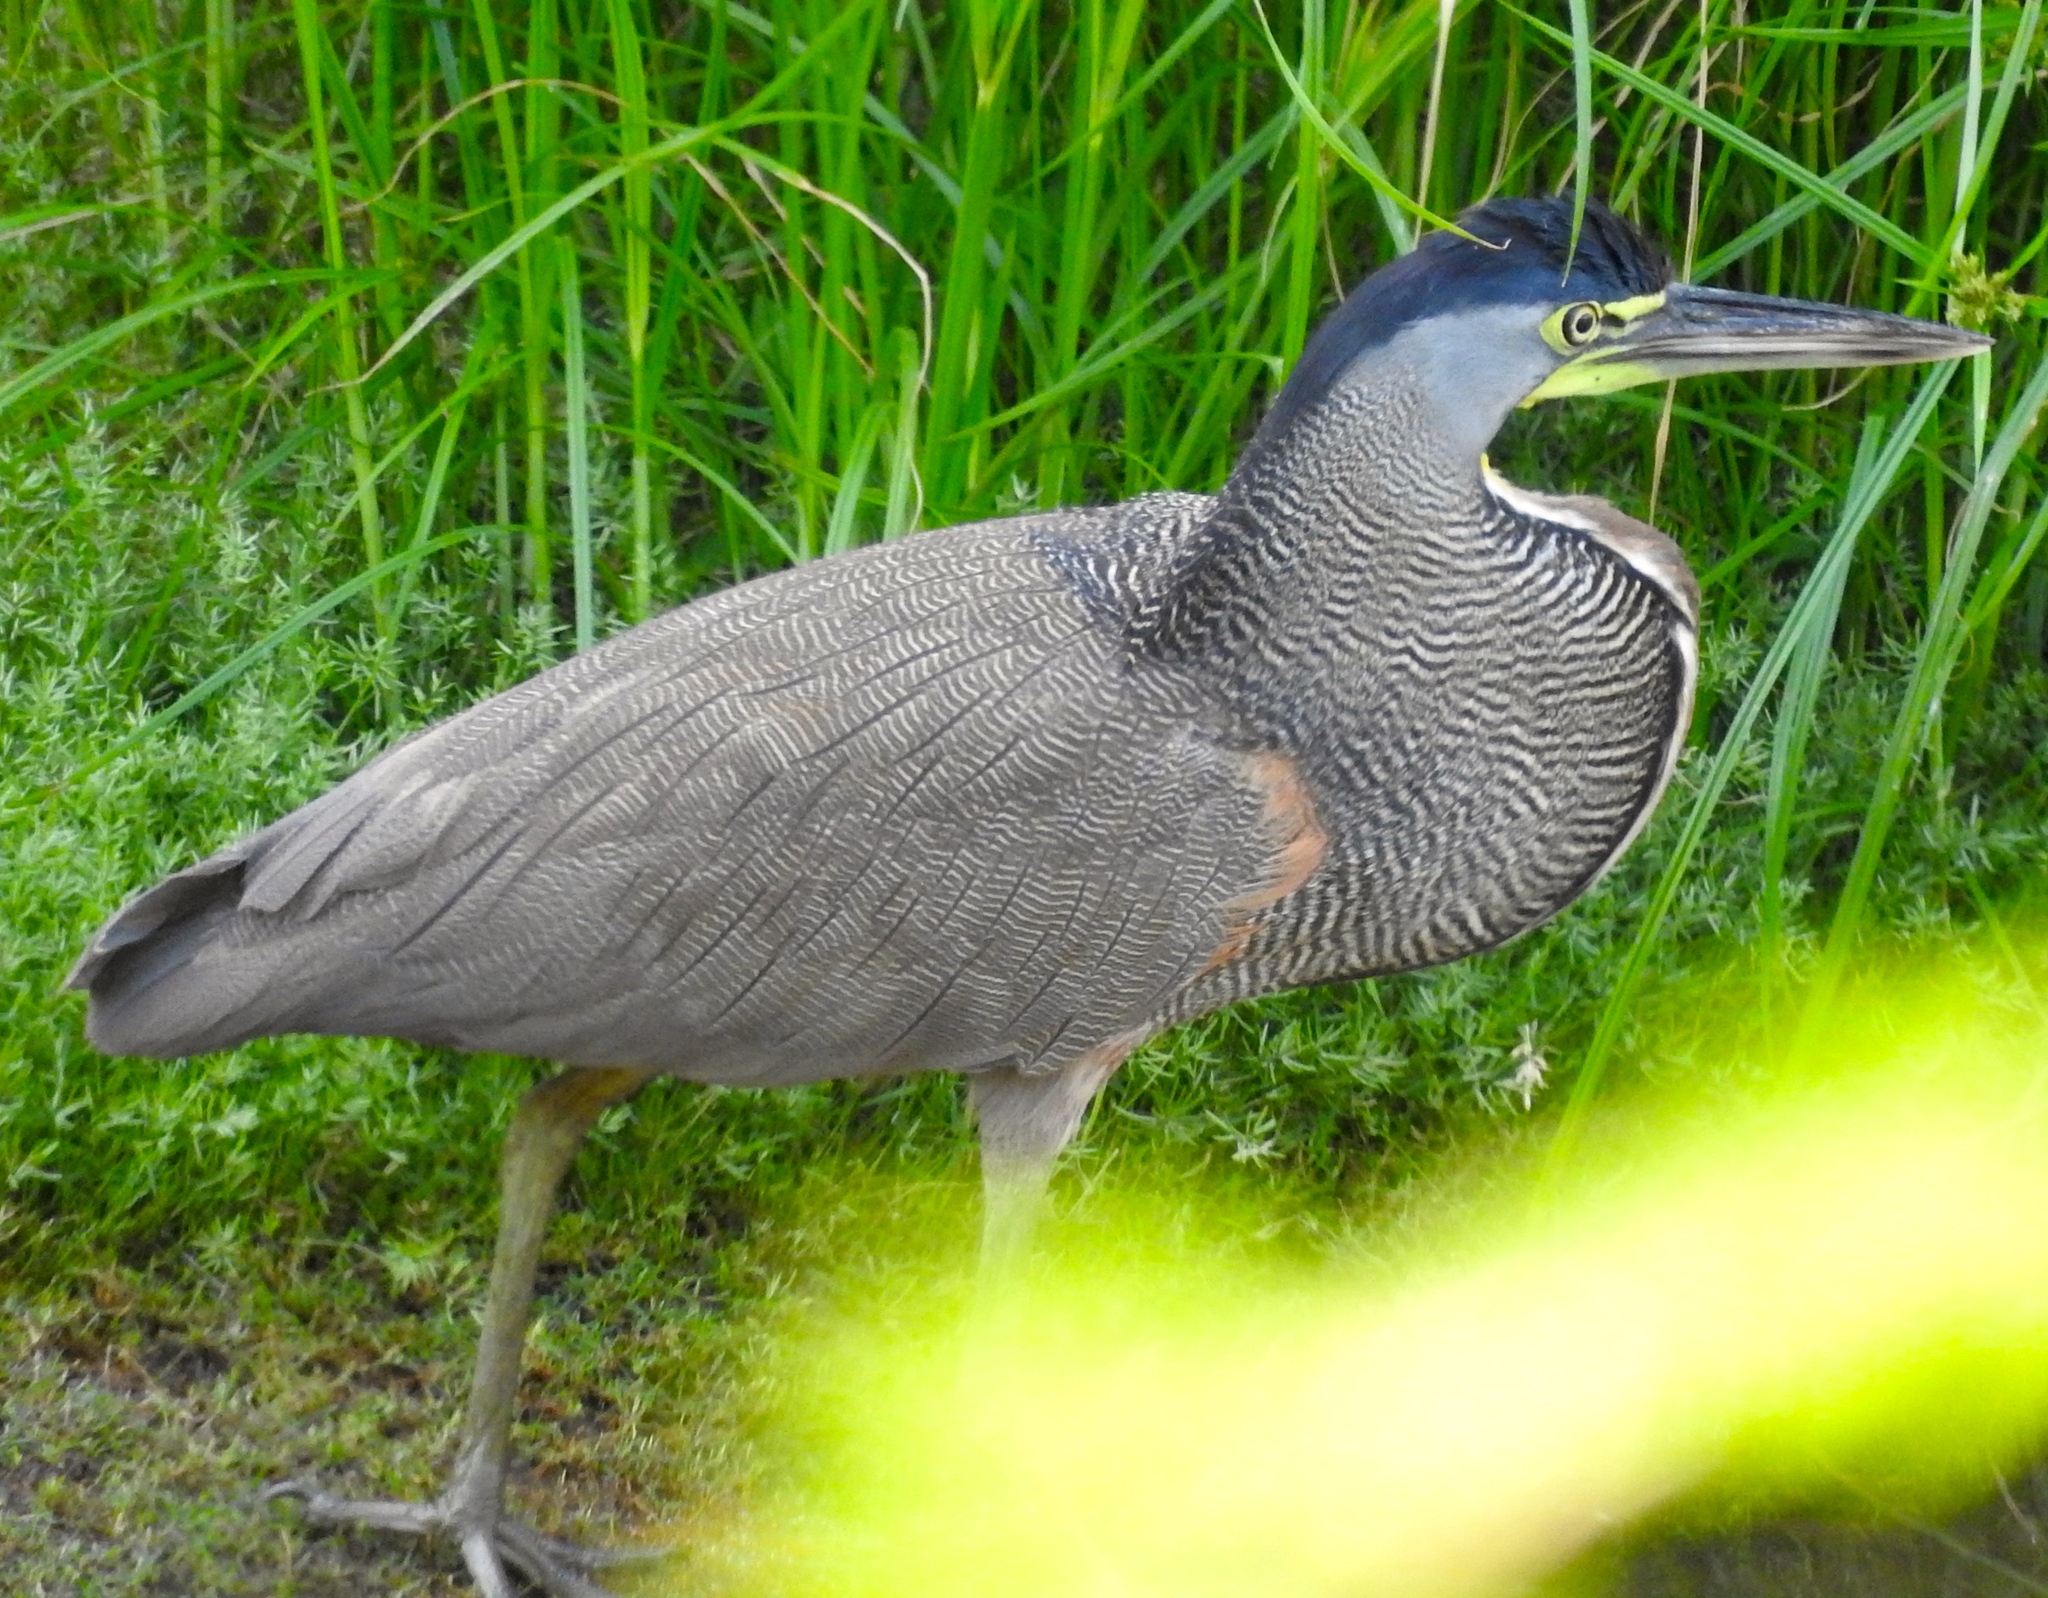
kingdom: Animalia
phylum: Chordata
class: Aves
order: Pelecaniformes
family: Ardeidae
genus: Tigrisoma
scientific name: Tigrisoma mexicanum
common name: Bare-throated tiger-heron
